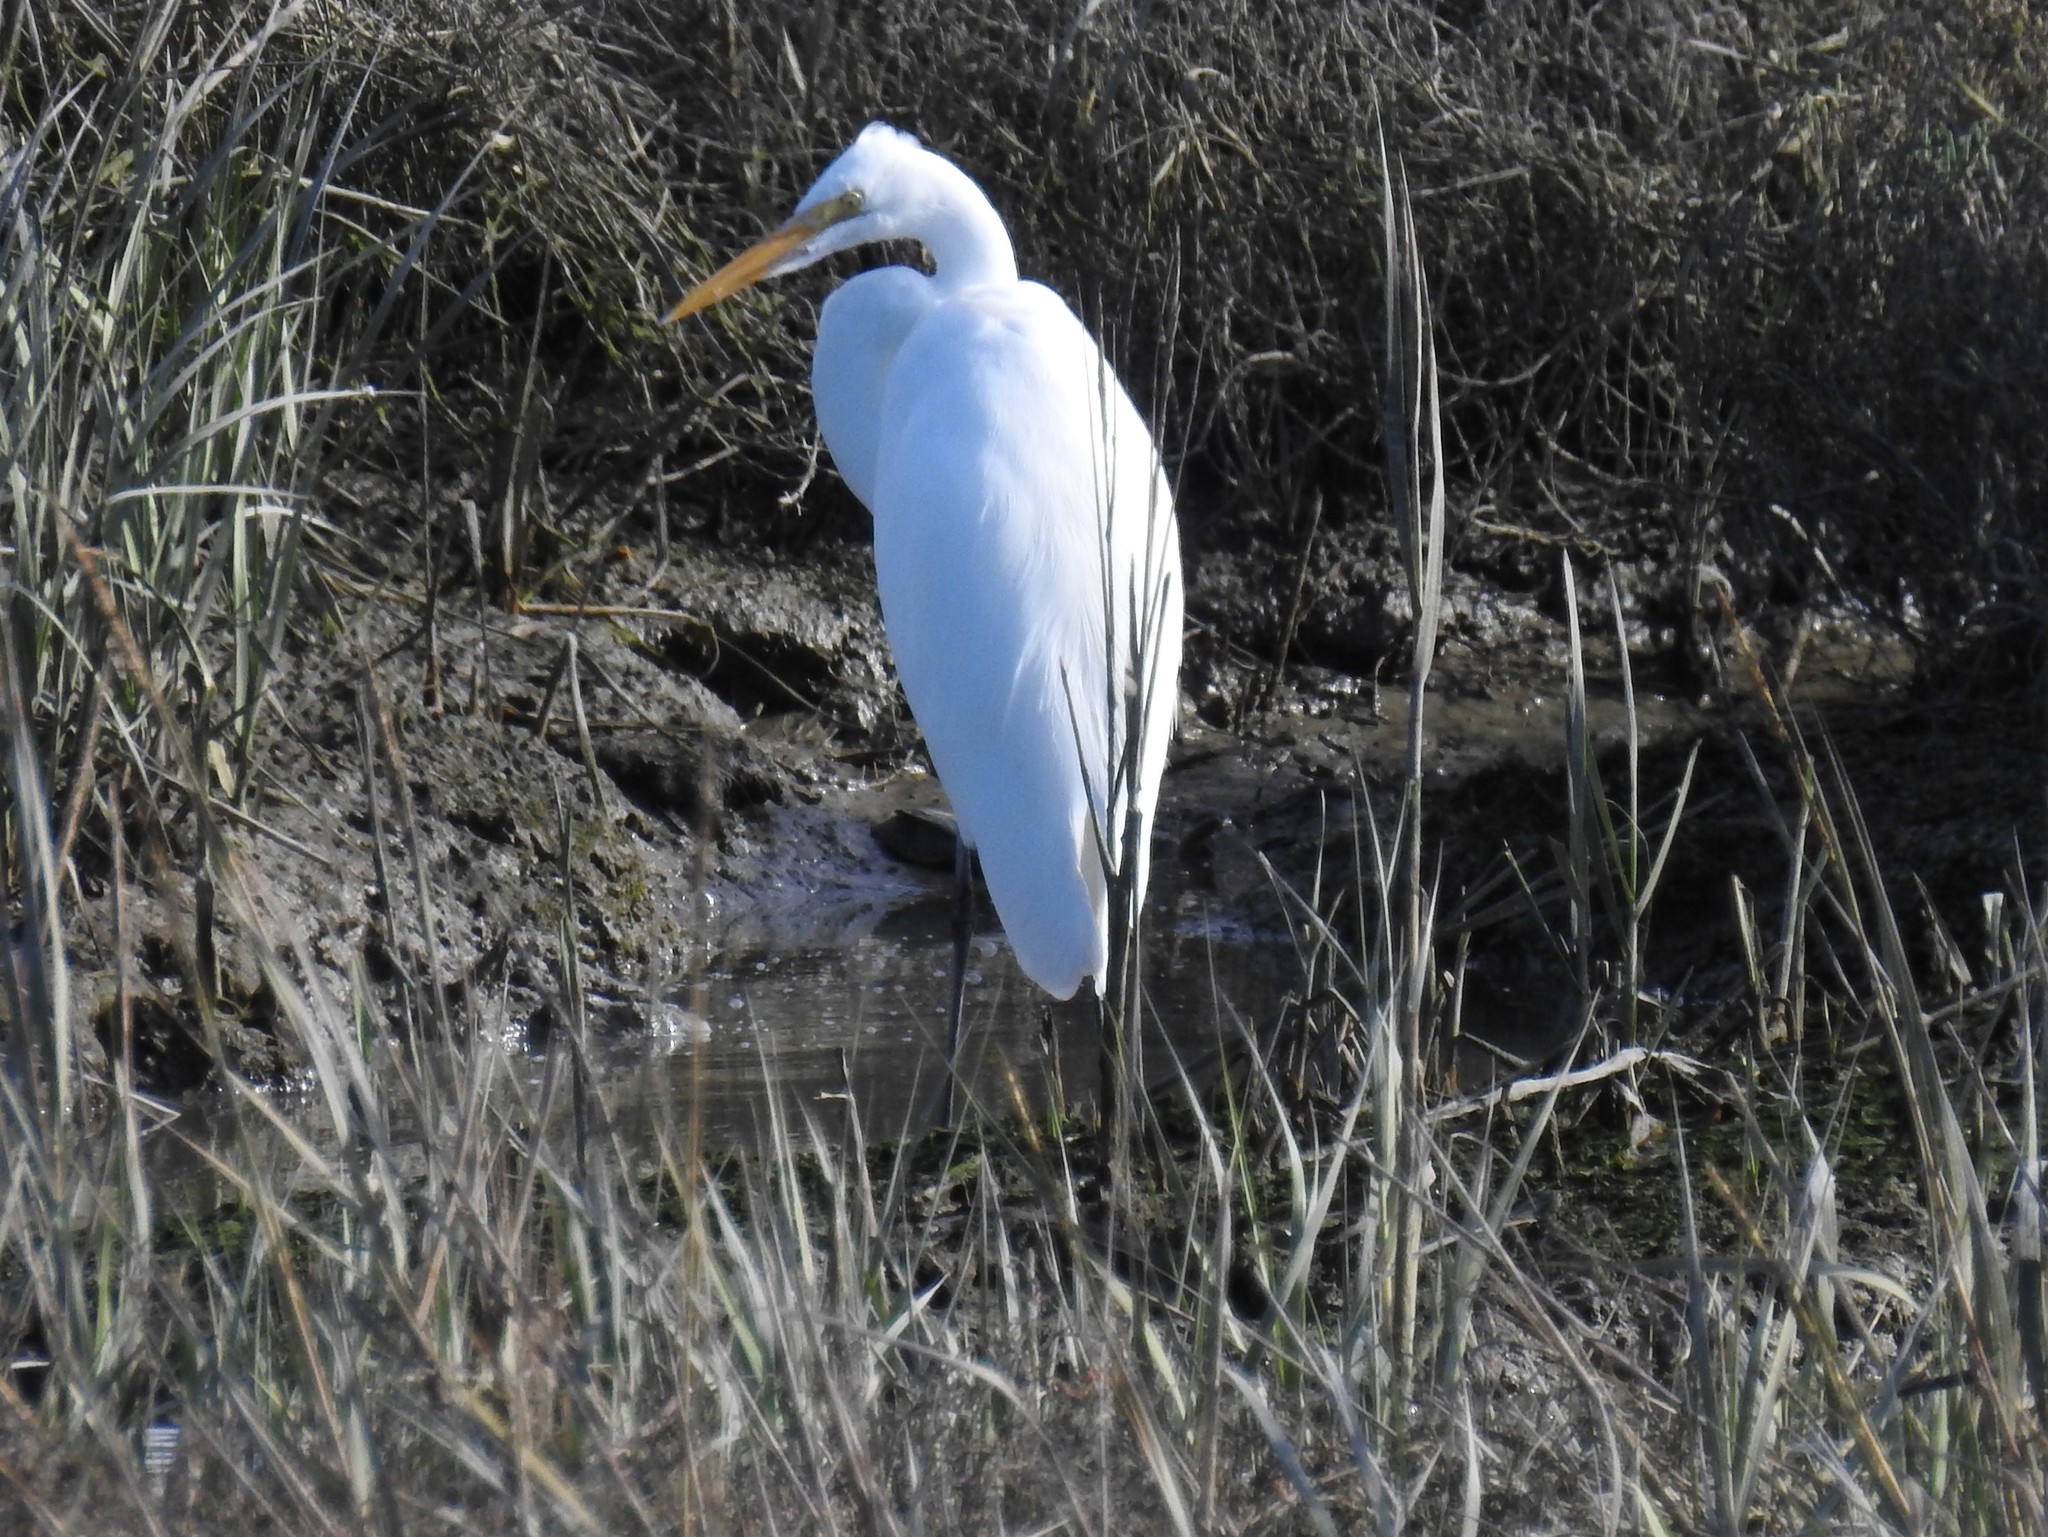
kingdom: Animalia
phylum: Chordata
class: Aves
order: Pelecaniformes
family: Ardeidae
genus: Ardea
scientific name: Ardea alba
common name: Great egret
